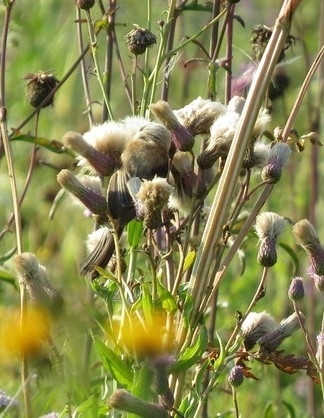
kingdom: Animalia
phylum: Chordata
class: Aves
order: Passeriformes
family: Remizidae
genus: Remiz
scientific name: Remiz pendulinus
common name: Eurasian penduline tit
